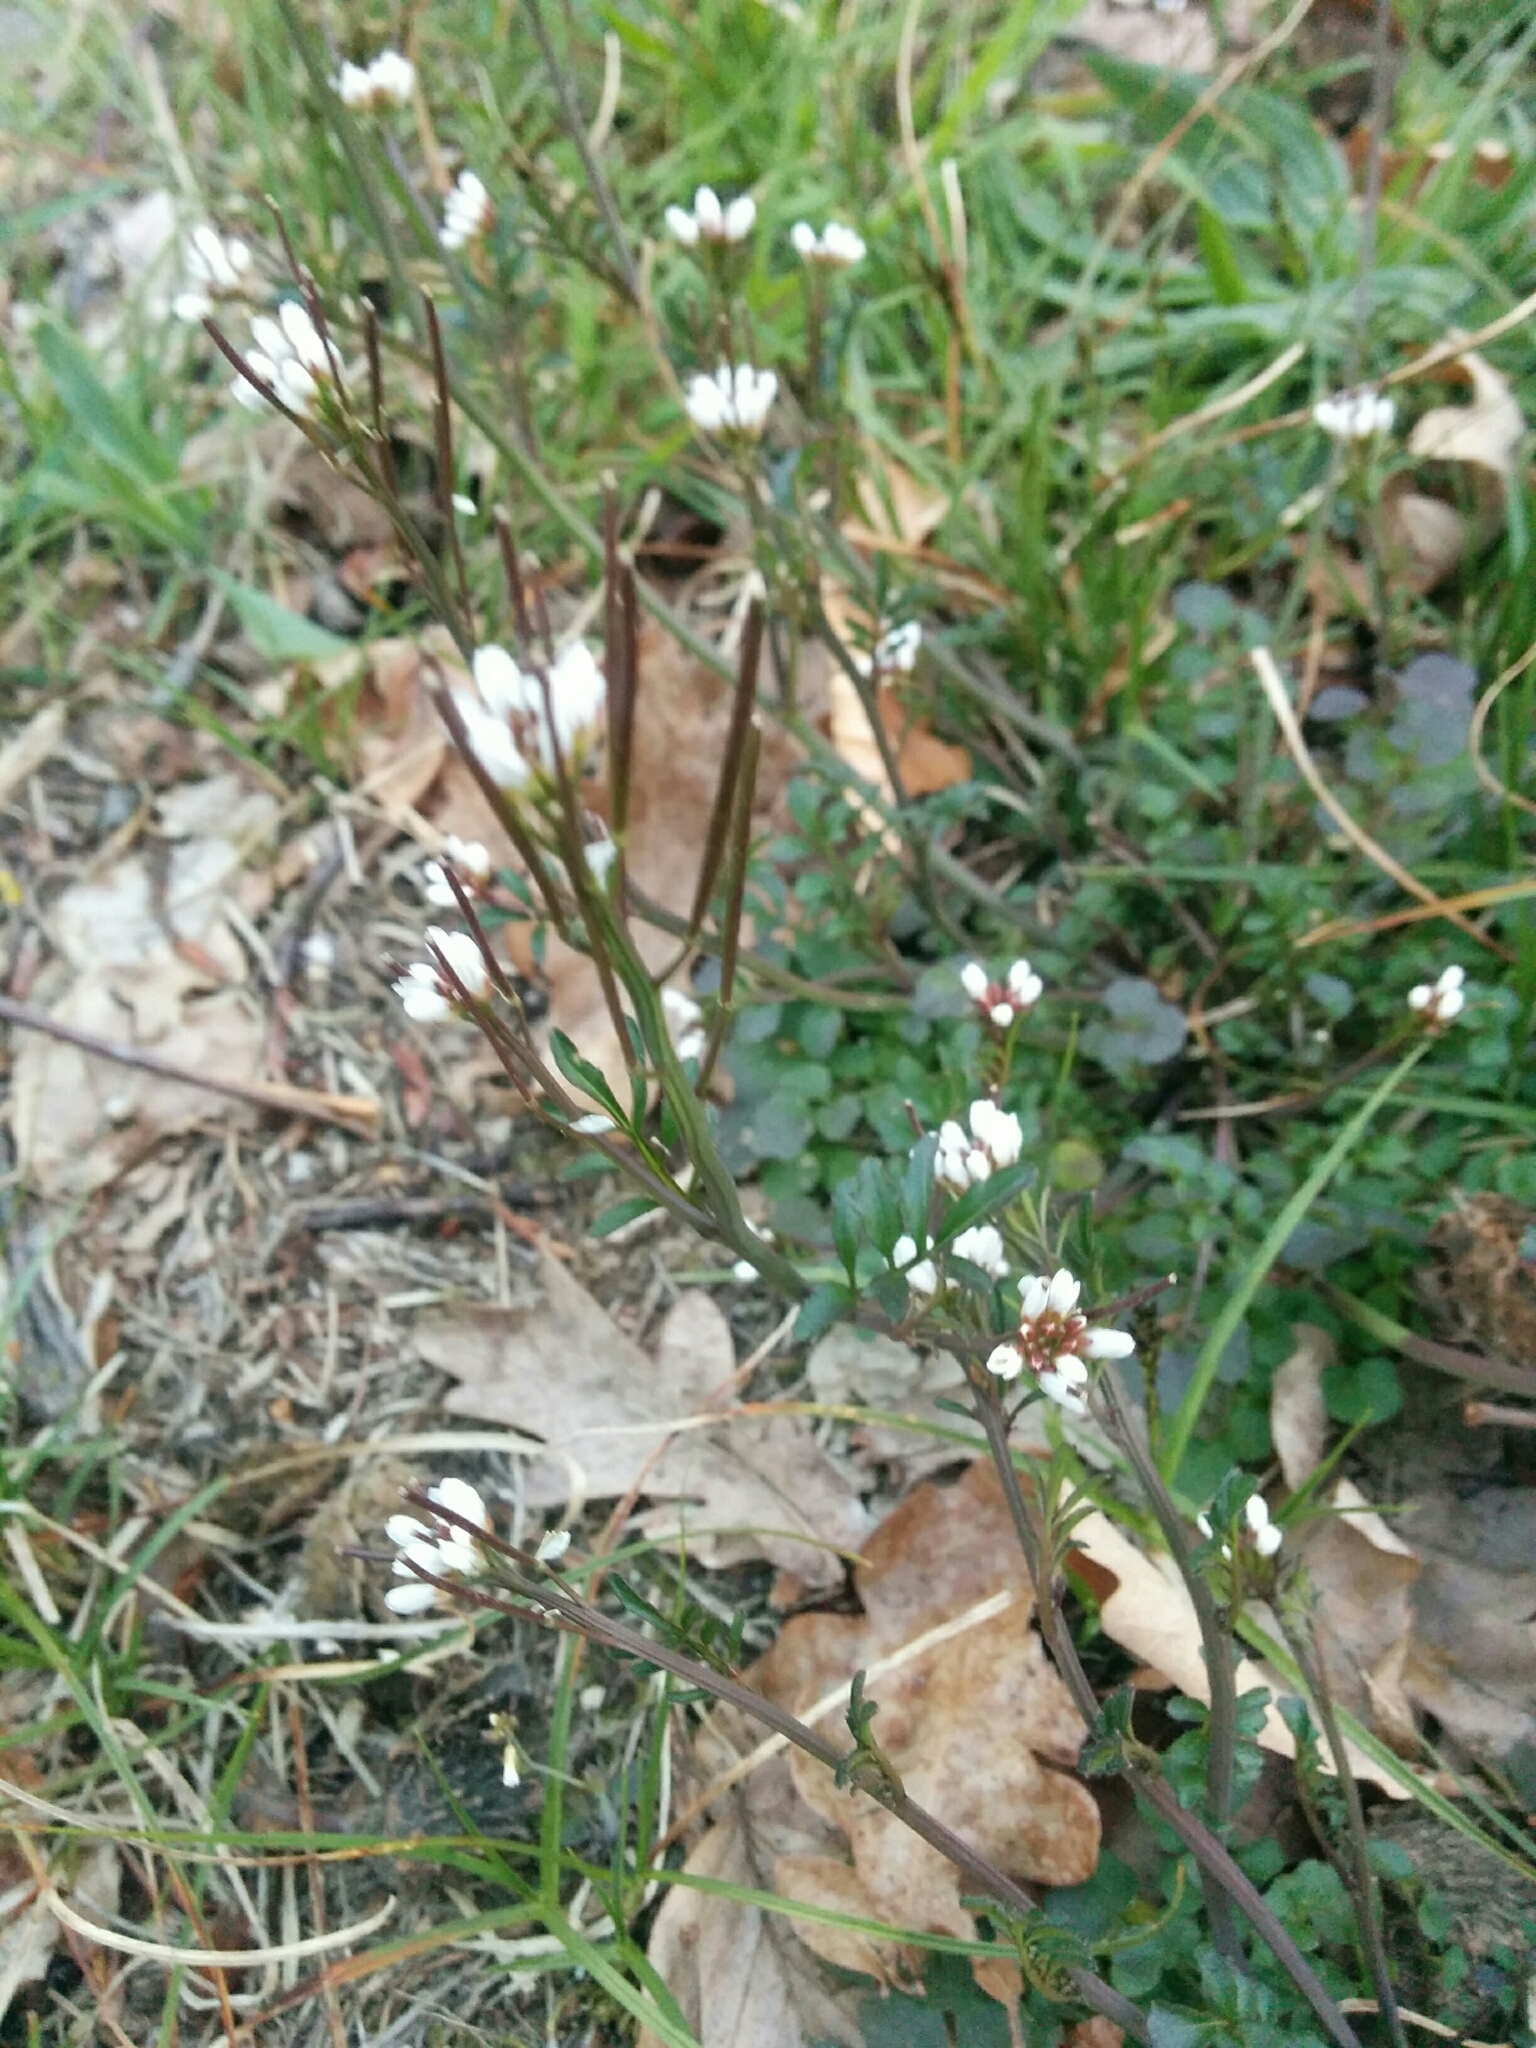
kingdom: Plantae
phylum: Tracheophyta
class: Magnoliopsida
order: Brassicales
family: Brassicaceae
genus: Cardamine
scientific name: Cardamine hirsuta
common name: Hairy bittercress
